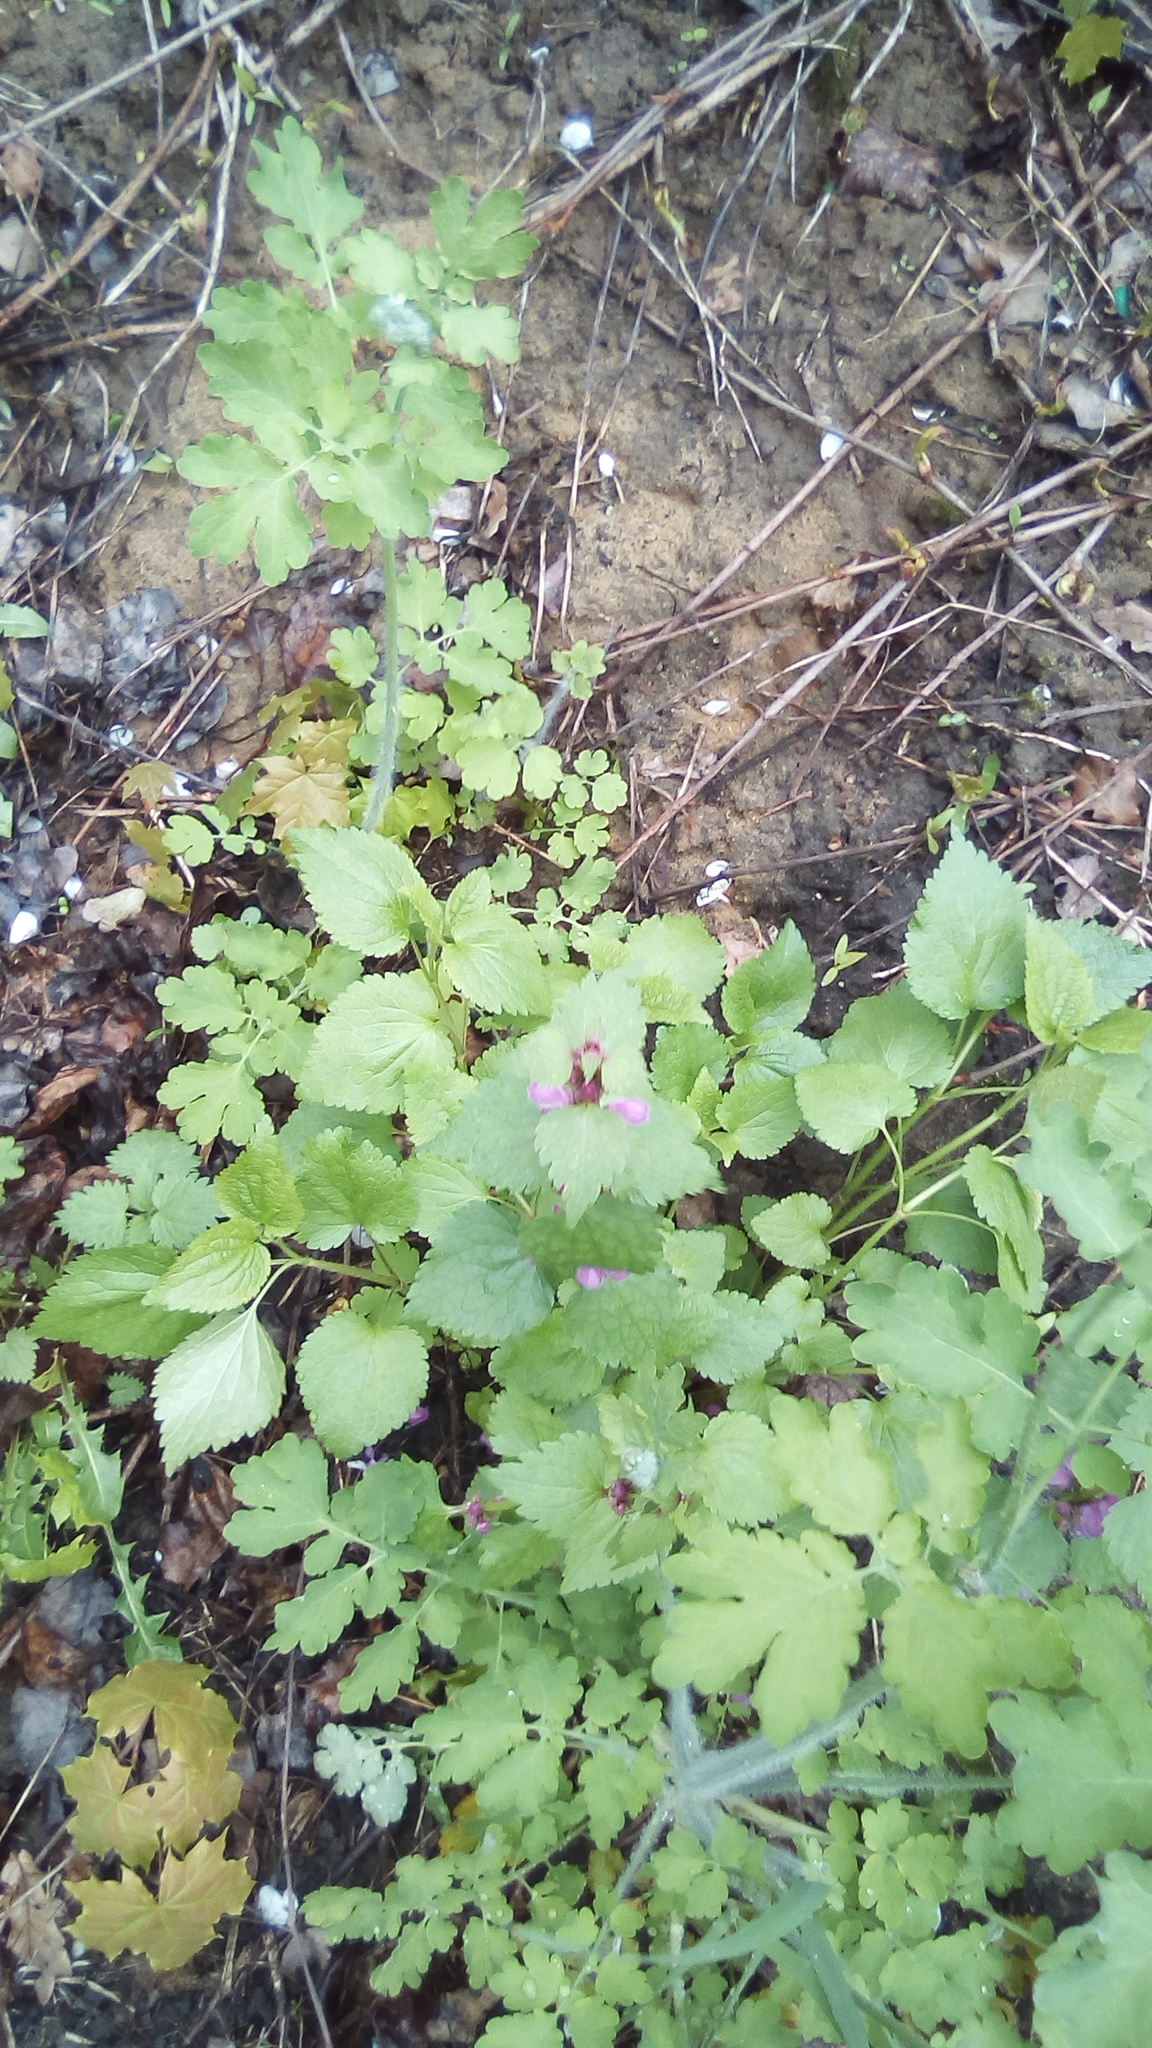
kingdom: Plantae
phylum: Tracheophyta
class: Magnoliopsida
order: Lamiales
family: Lamiaceae
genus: Lamium
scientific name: Lamium maculatum
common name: Spotted dead-nettle
